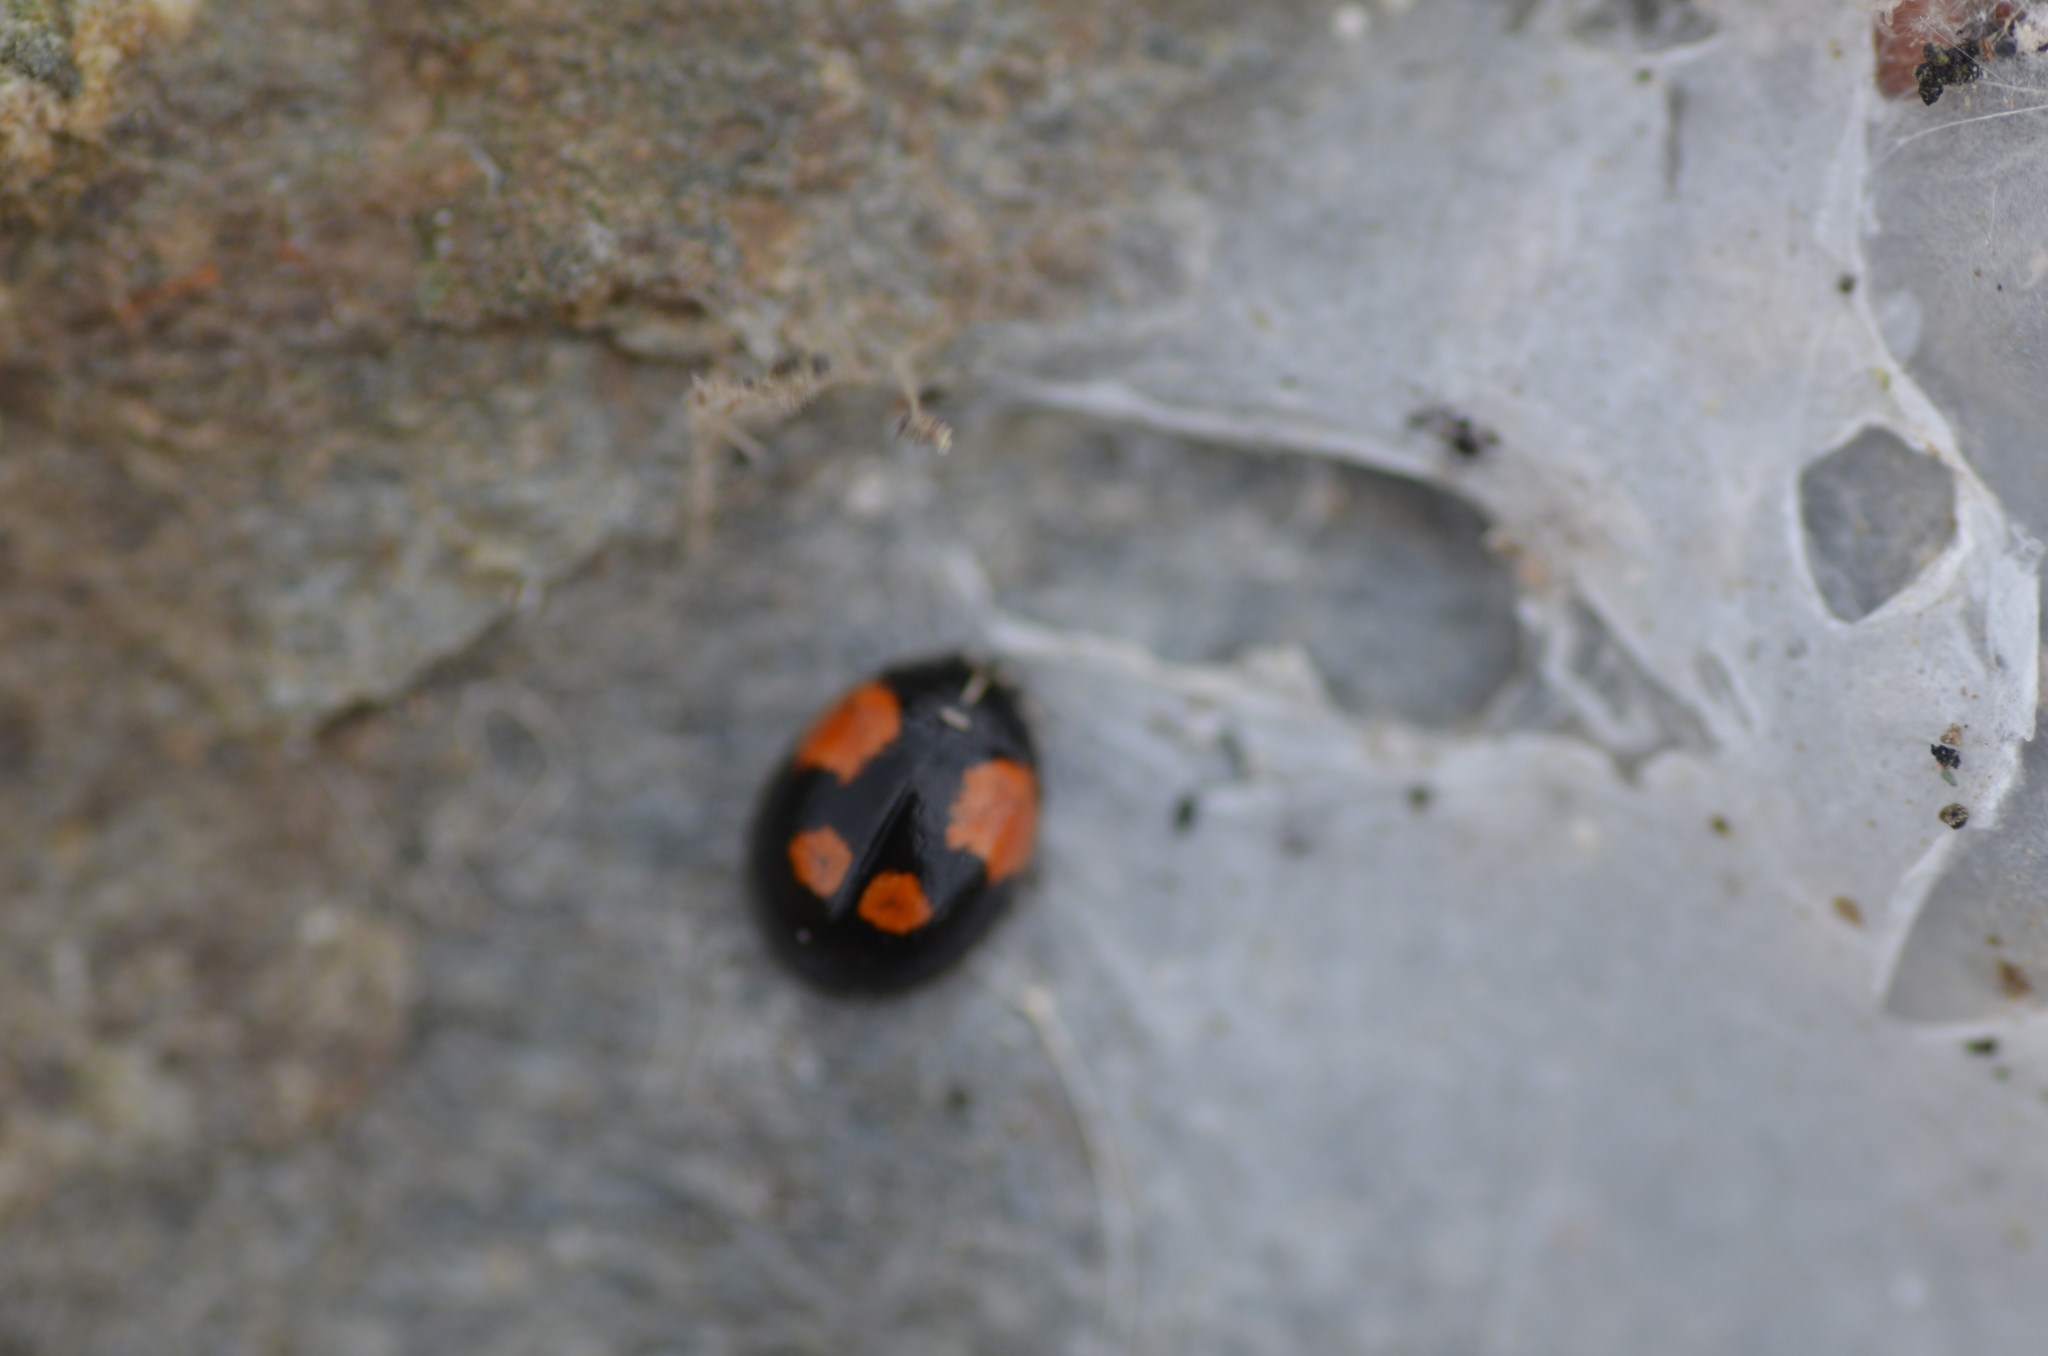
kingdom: Animalia
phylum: Arthropoda
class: Insecta
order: Coleoptera
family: Coccinellidae
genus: Adalia
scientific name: Adalia bipunctata
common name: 2-spot ladybird
